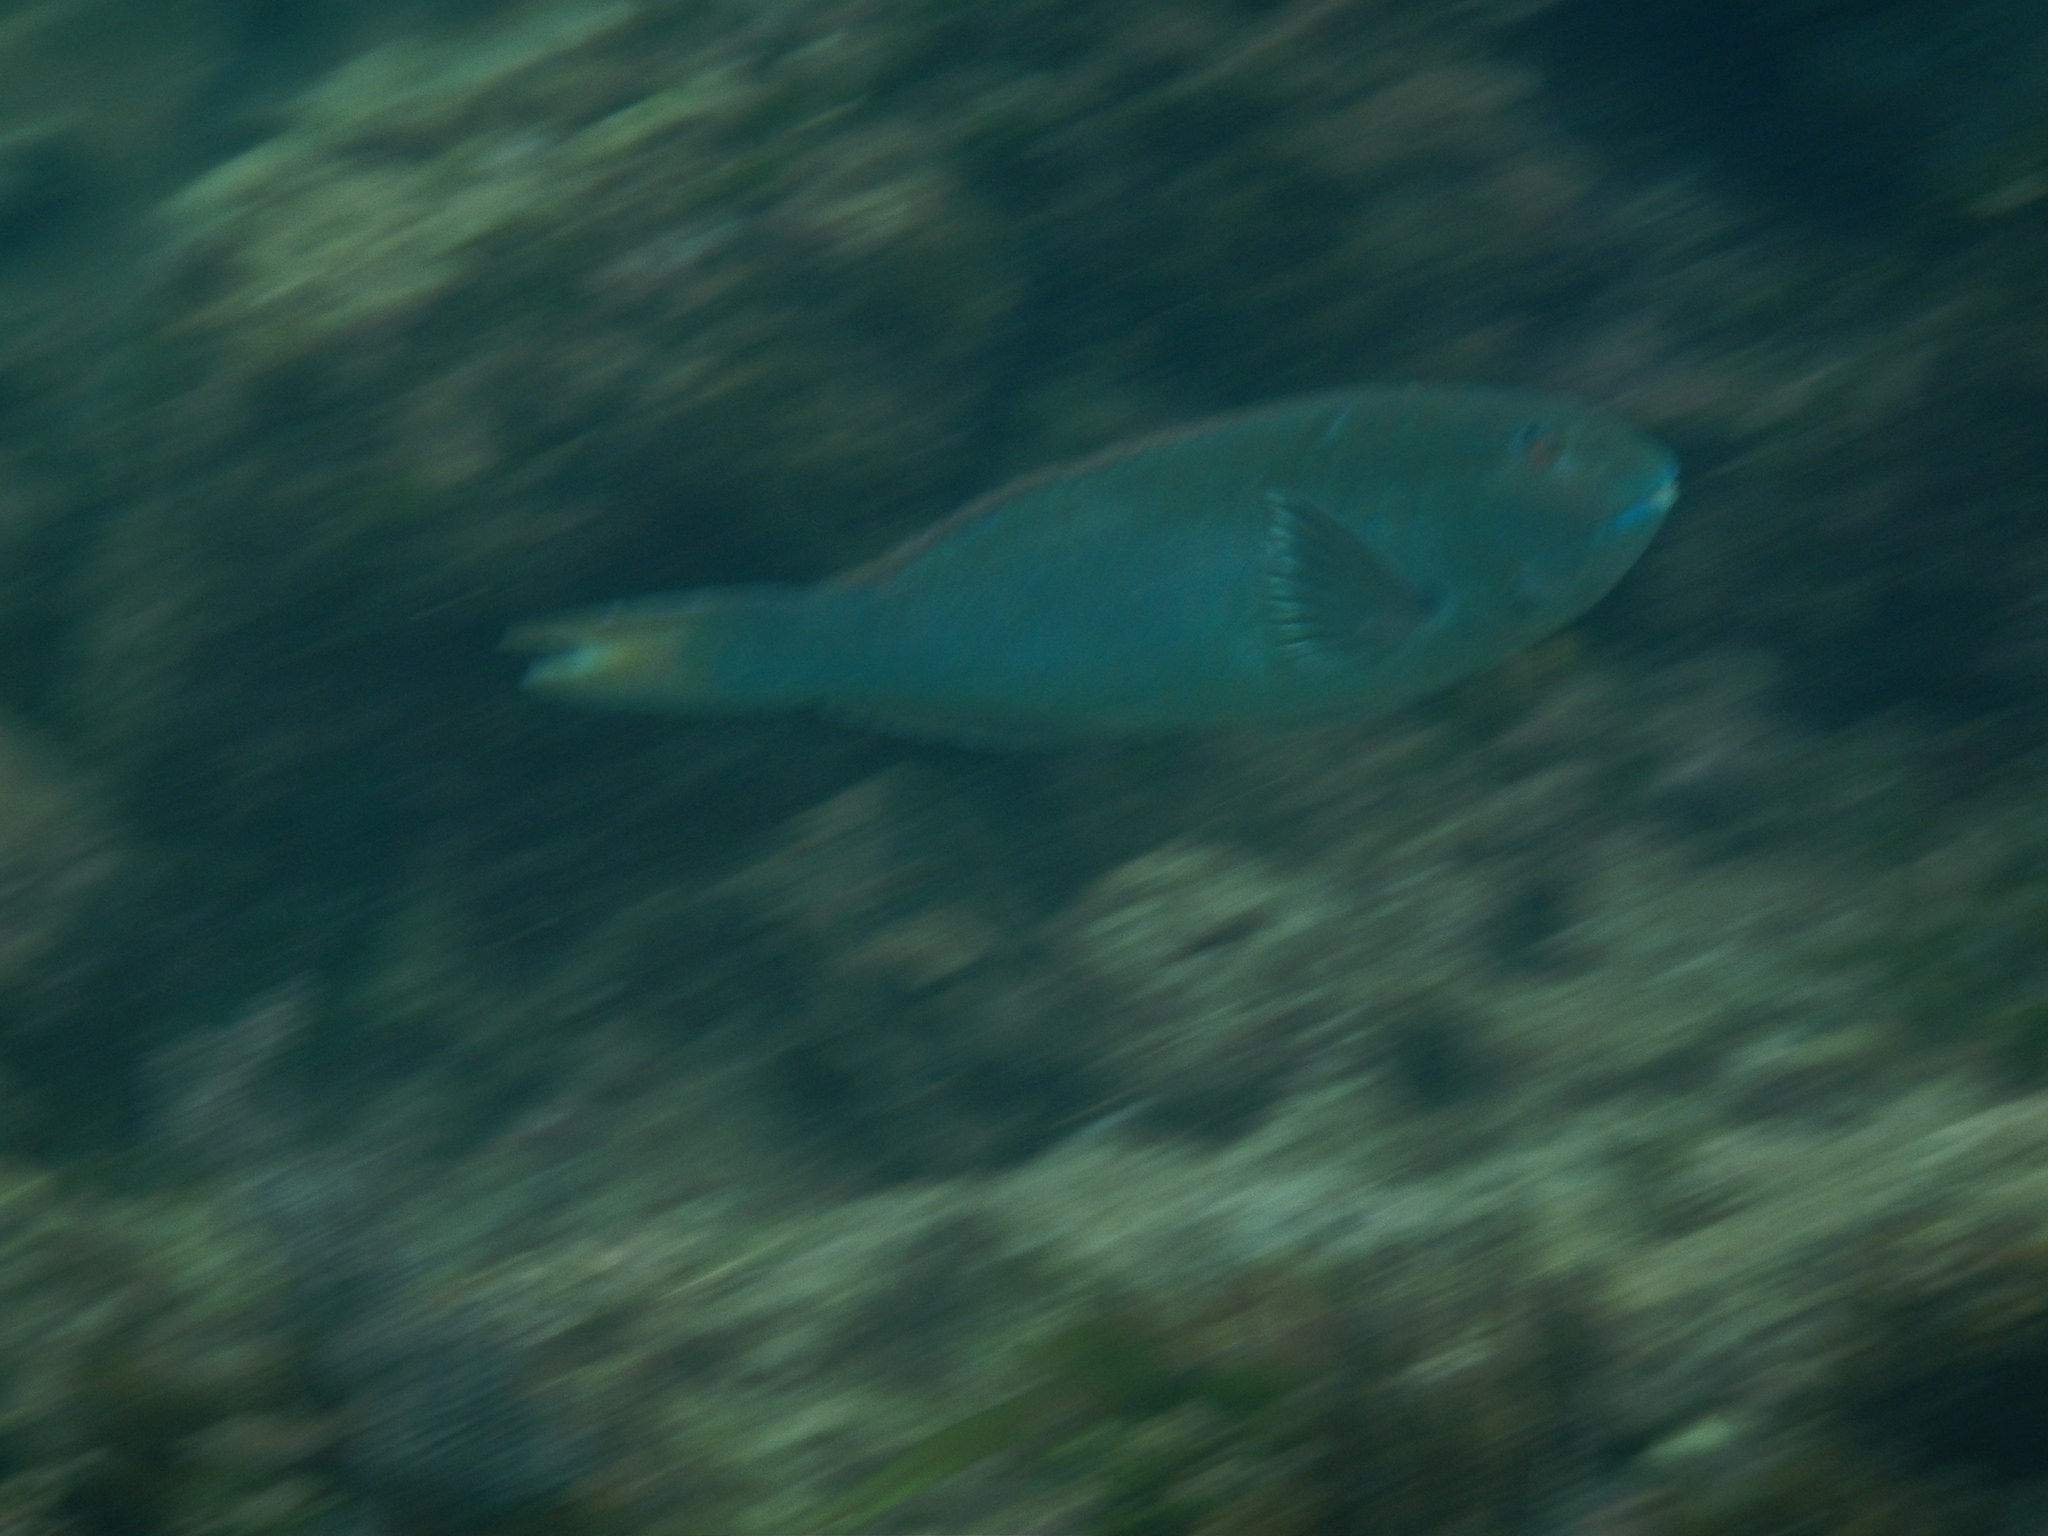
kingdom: Animalia
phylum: Chordata
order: Perciformes
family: Scaridae
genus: Sparisoma
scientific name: Sparisoma rubripinne
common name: Redfin parrotfish
